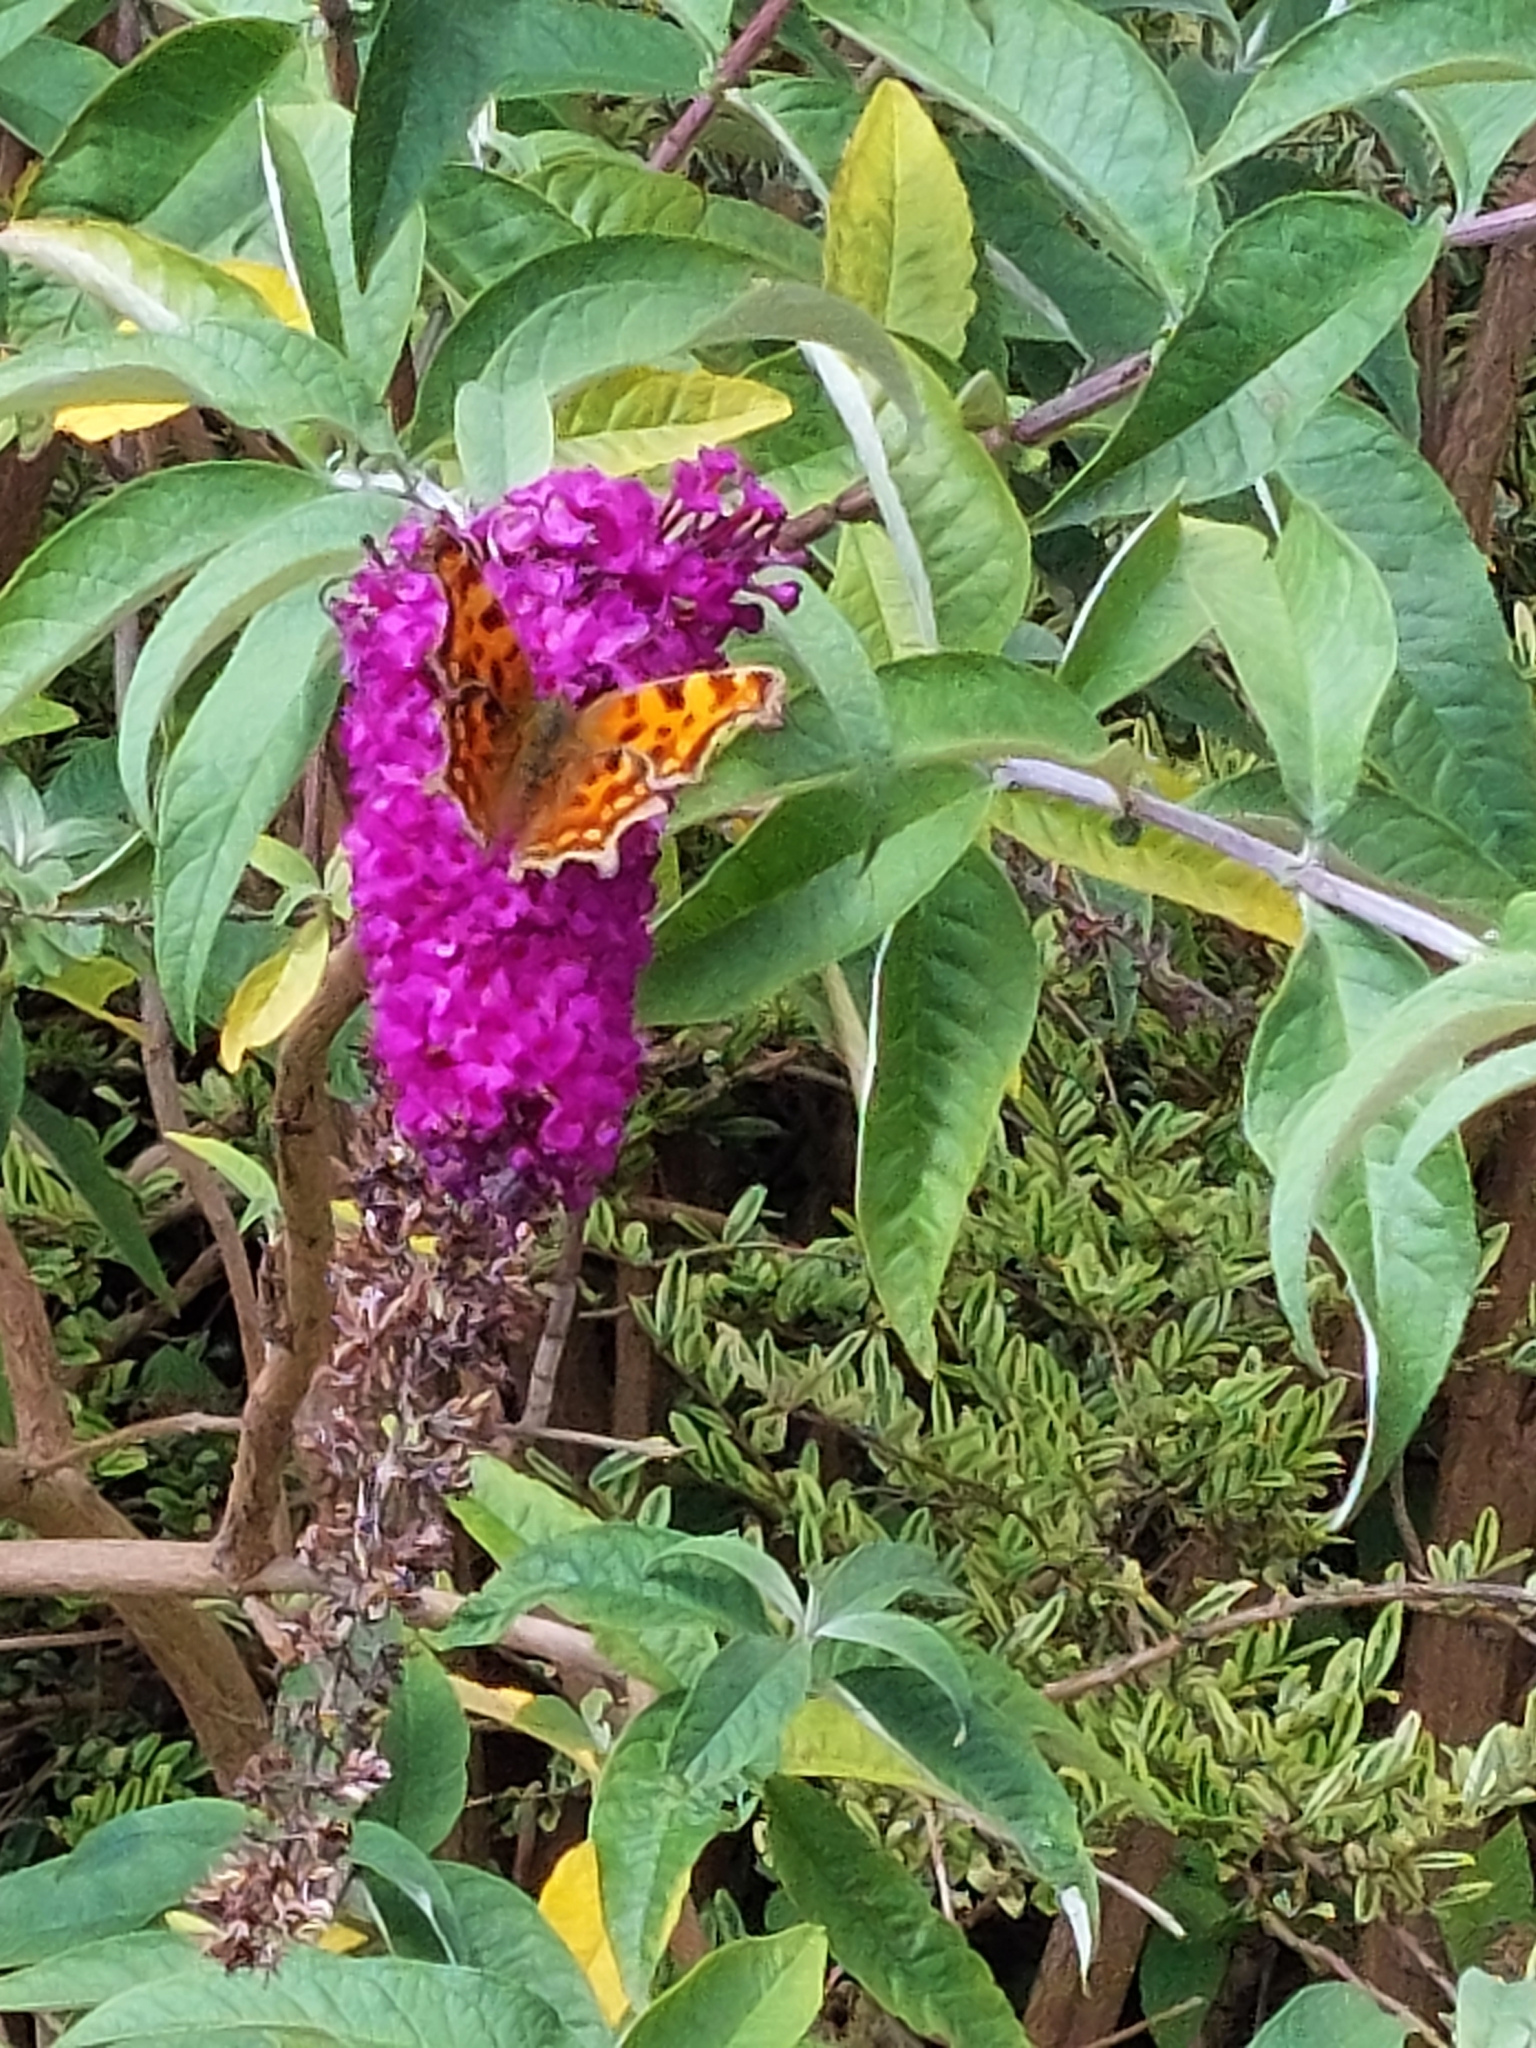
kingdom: Animalia
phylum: Arthropoda
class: Insecta
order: Lepidoptera
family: Nymphalidae
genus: Polygonia
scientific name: Polygonia c-album
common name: Comma
